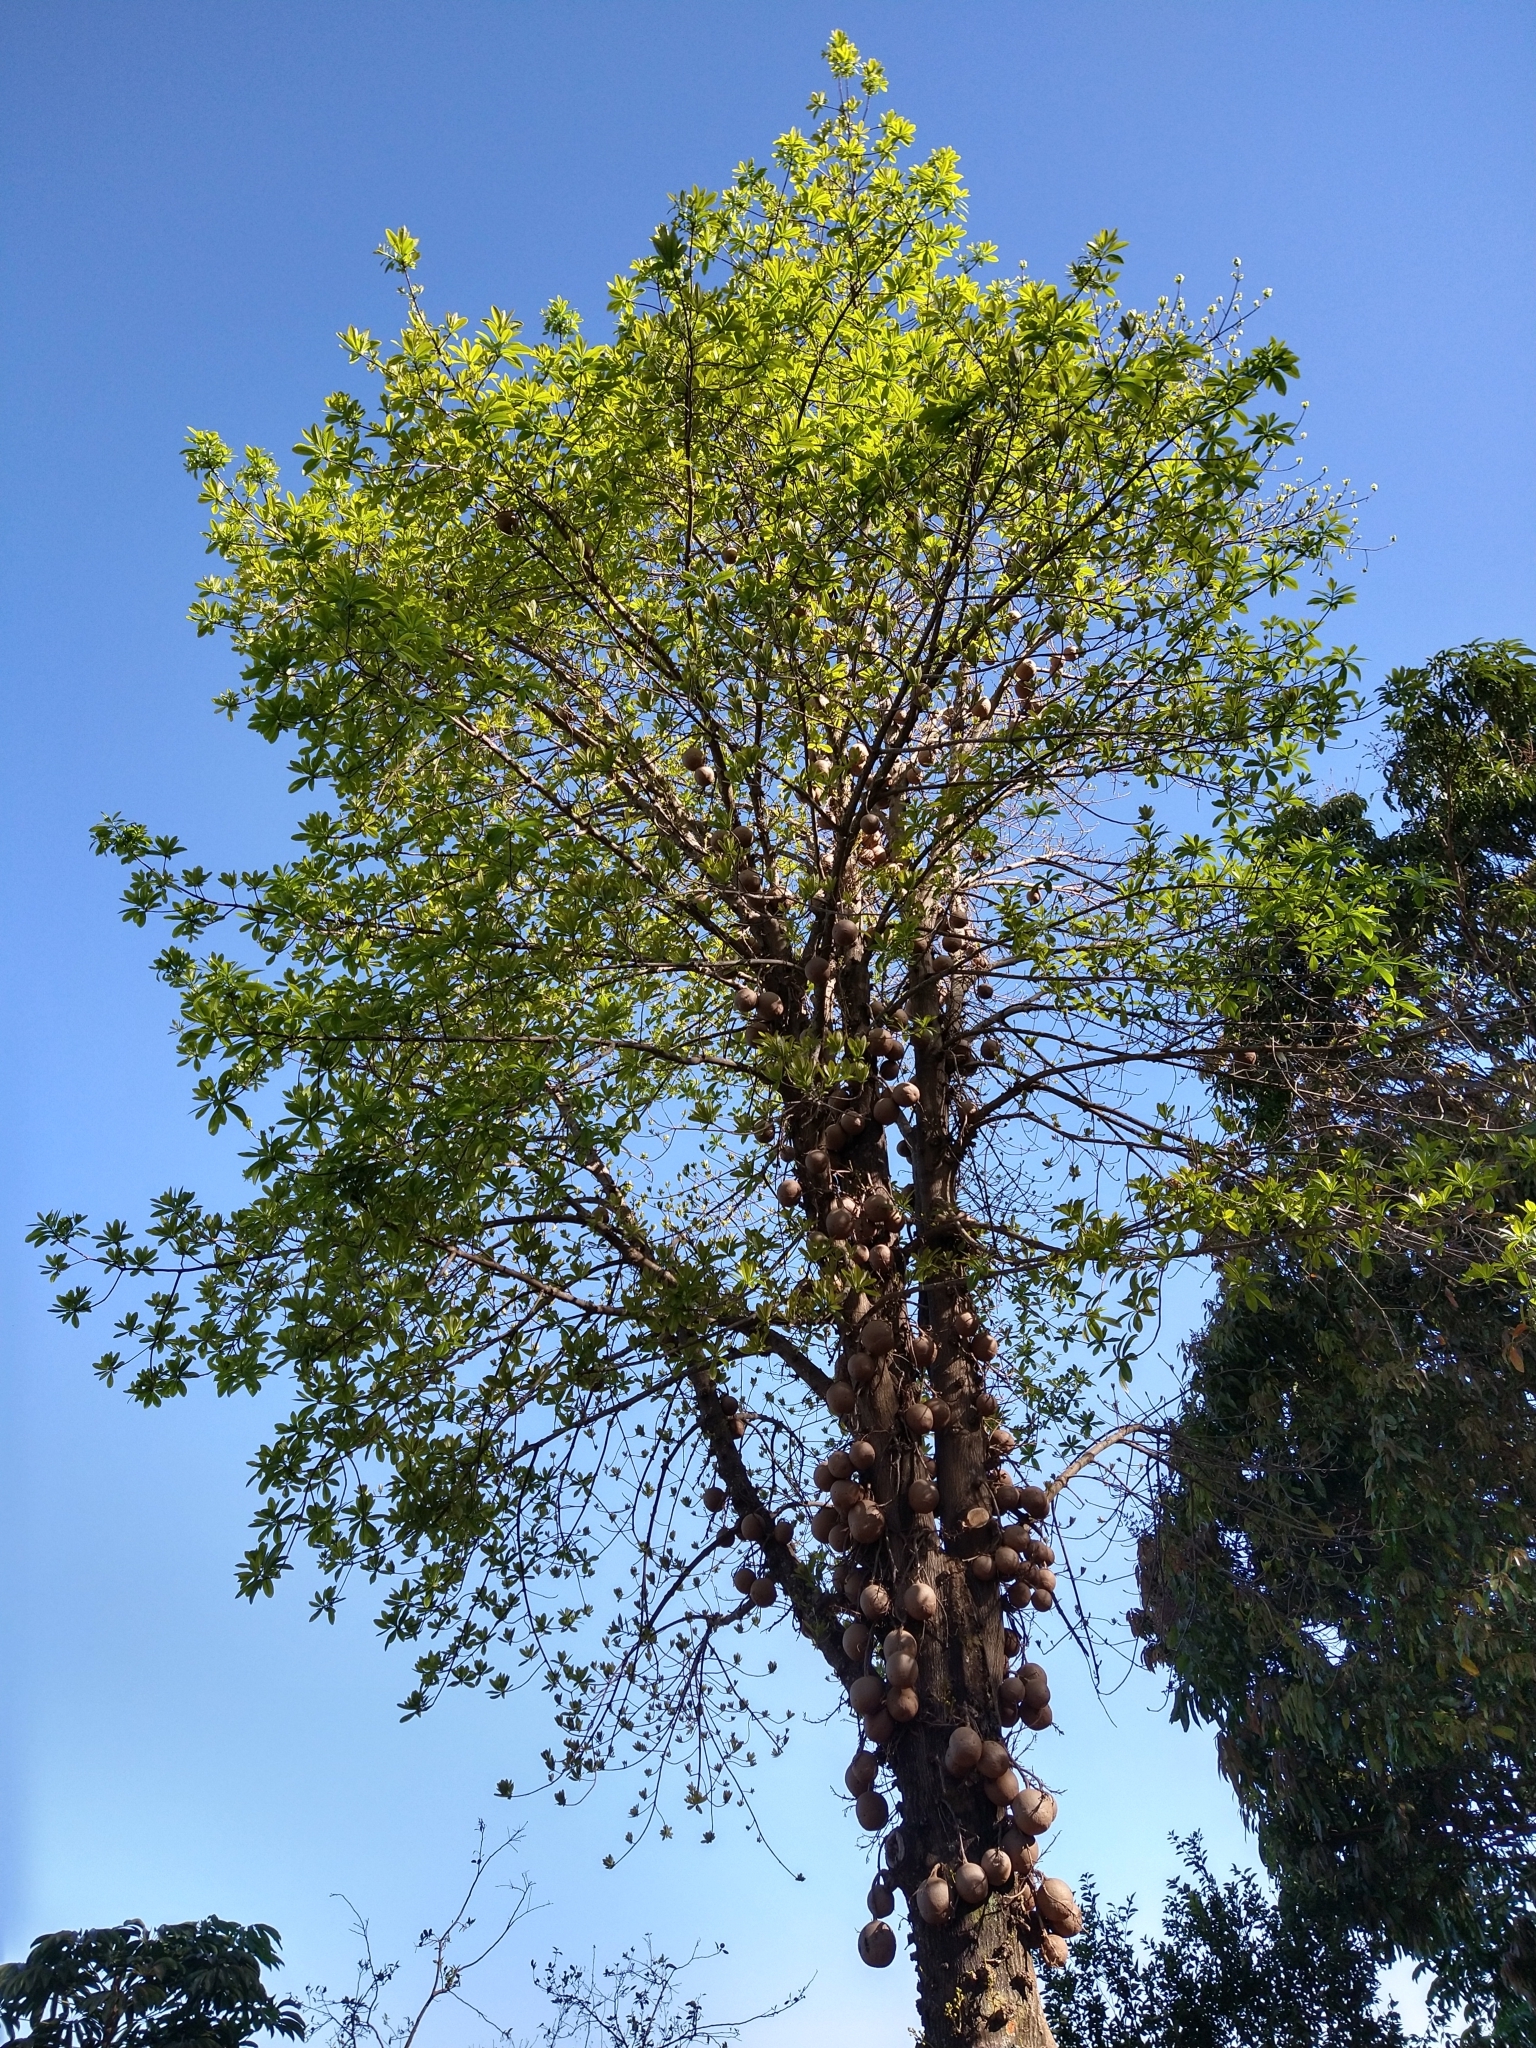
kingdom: Plantae
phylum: Tracheophyta
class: Magnoliopsida
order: Ericales
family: Lecythidaceae
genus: Couroupita
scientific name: Couroupita guianensis
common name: Cannonball tree
